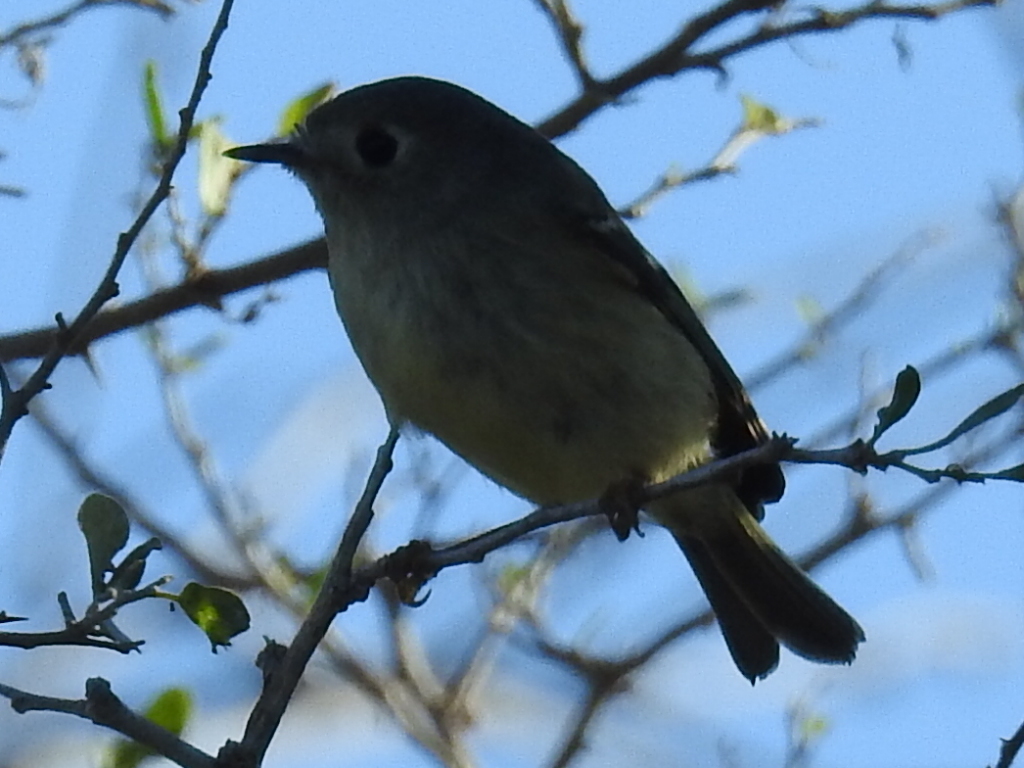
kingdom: Animalia
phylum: Chordata
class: Aves
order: Passeriformes
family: Regulidae
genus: Regulus
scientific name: Regulus calendula
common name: Ruby-crowned kinglet
